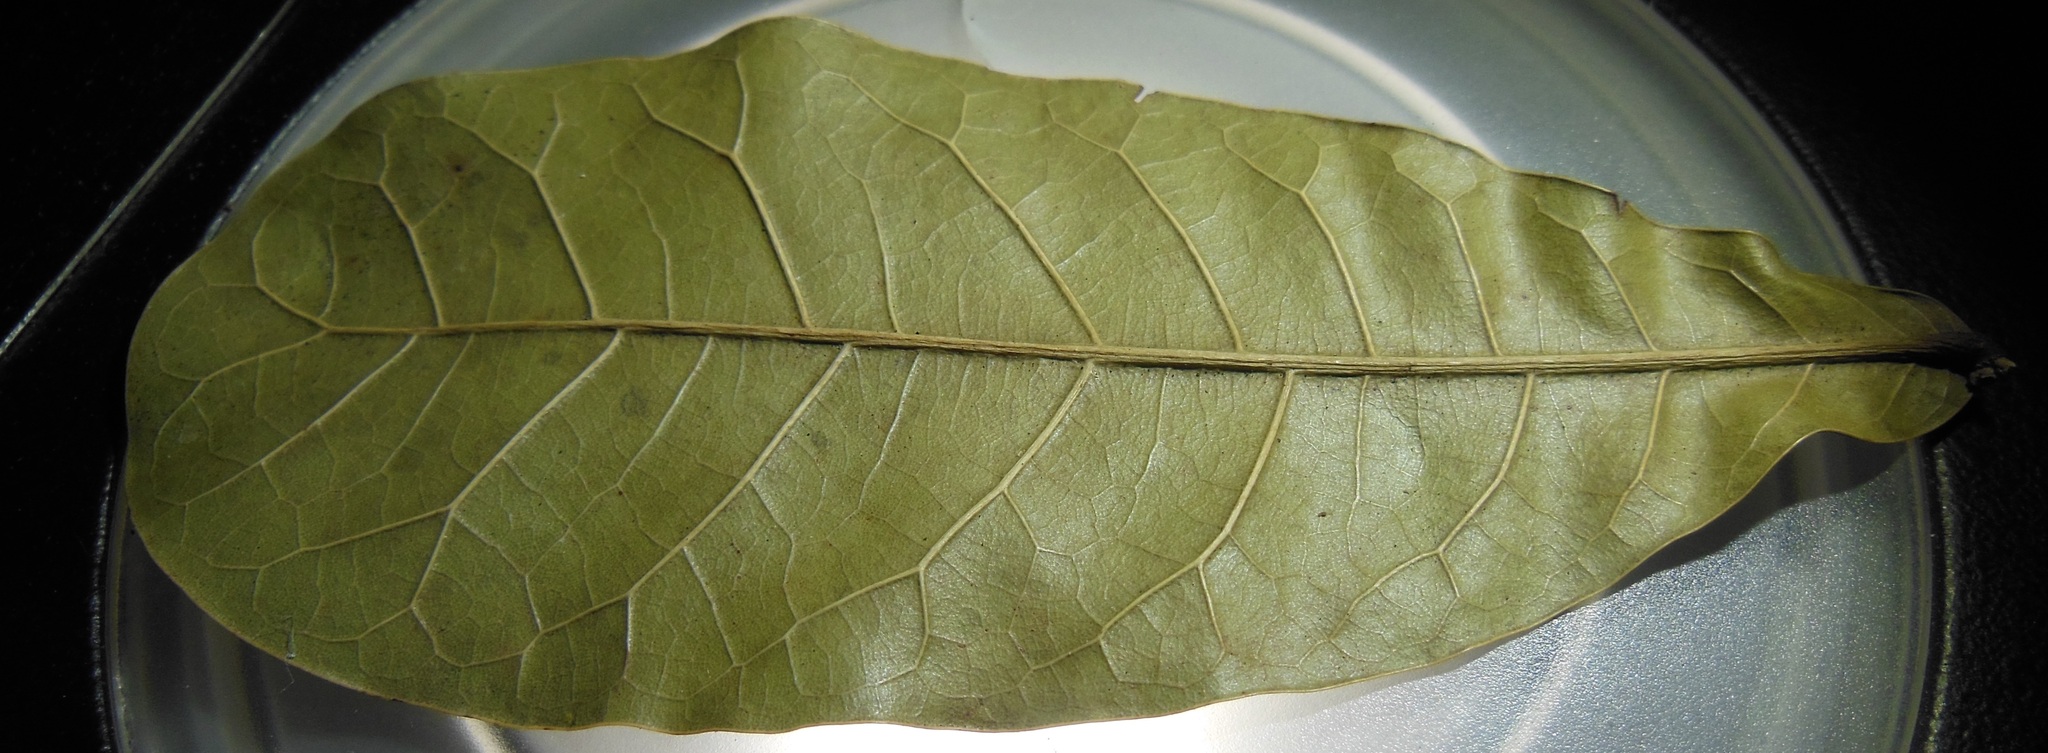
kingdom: Plantae
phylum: Tracheophyta
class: Magnoliopsida
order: Fagales
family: Fagaceae
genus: Quercus
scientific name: Quercus elliptica
